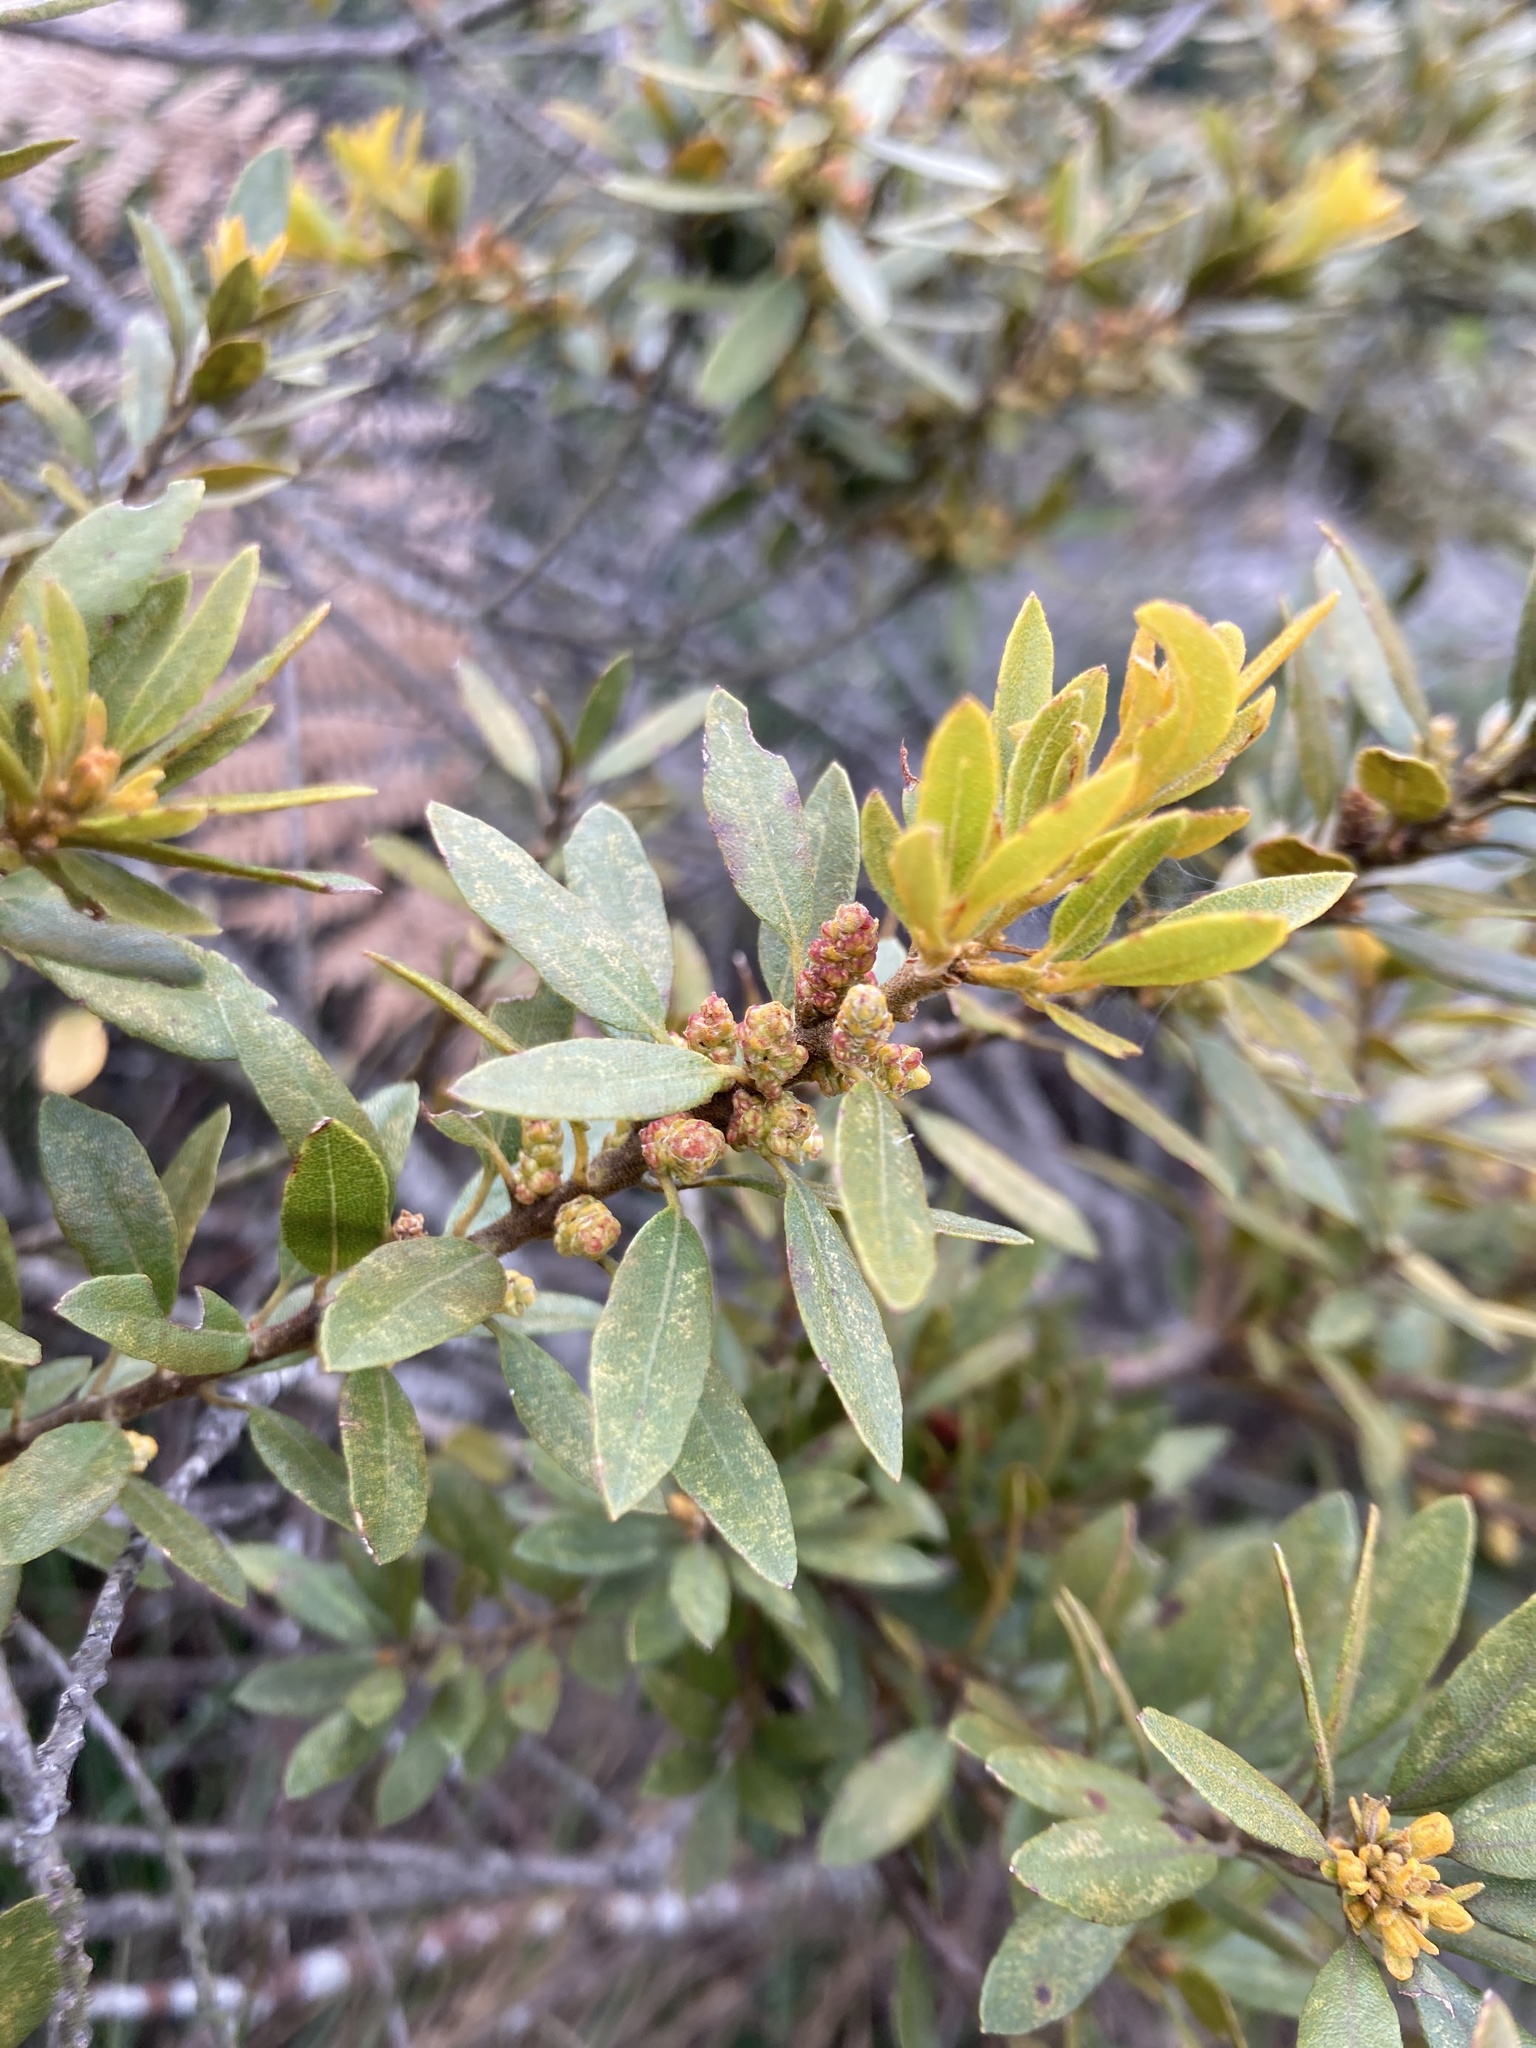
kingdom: Plantae
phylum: Tracheophyta
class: Magnoliopsida
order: Fagales
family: Myricaceae
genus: Morella
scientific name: Morella parvifolia
